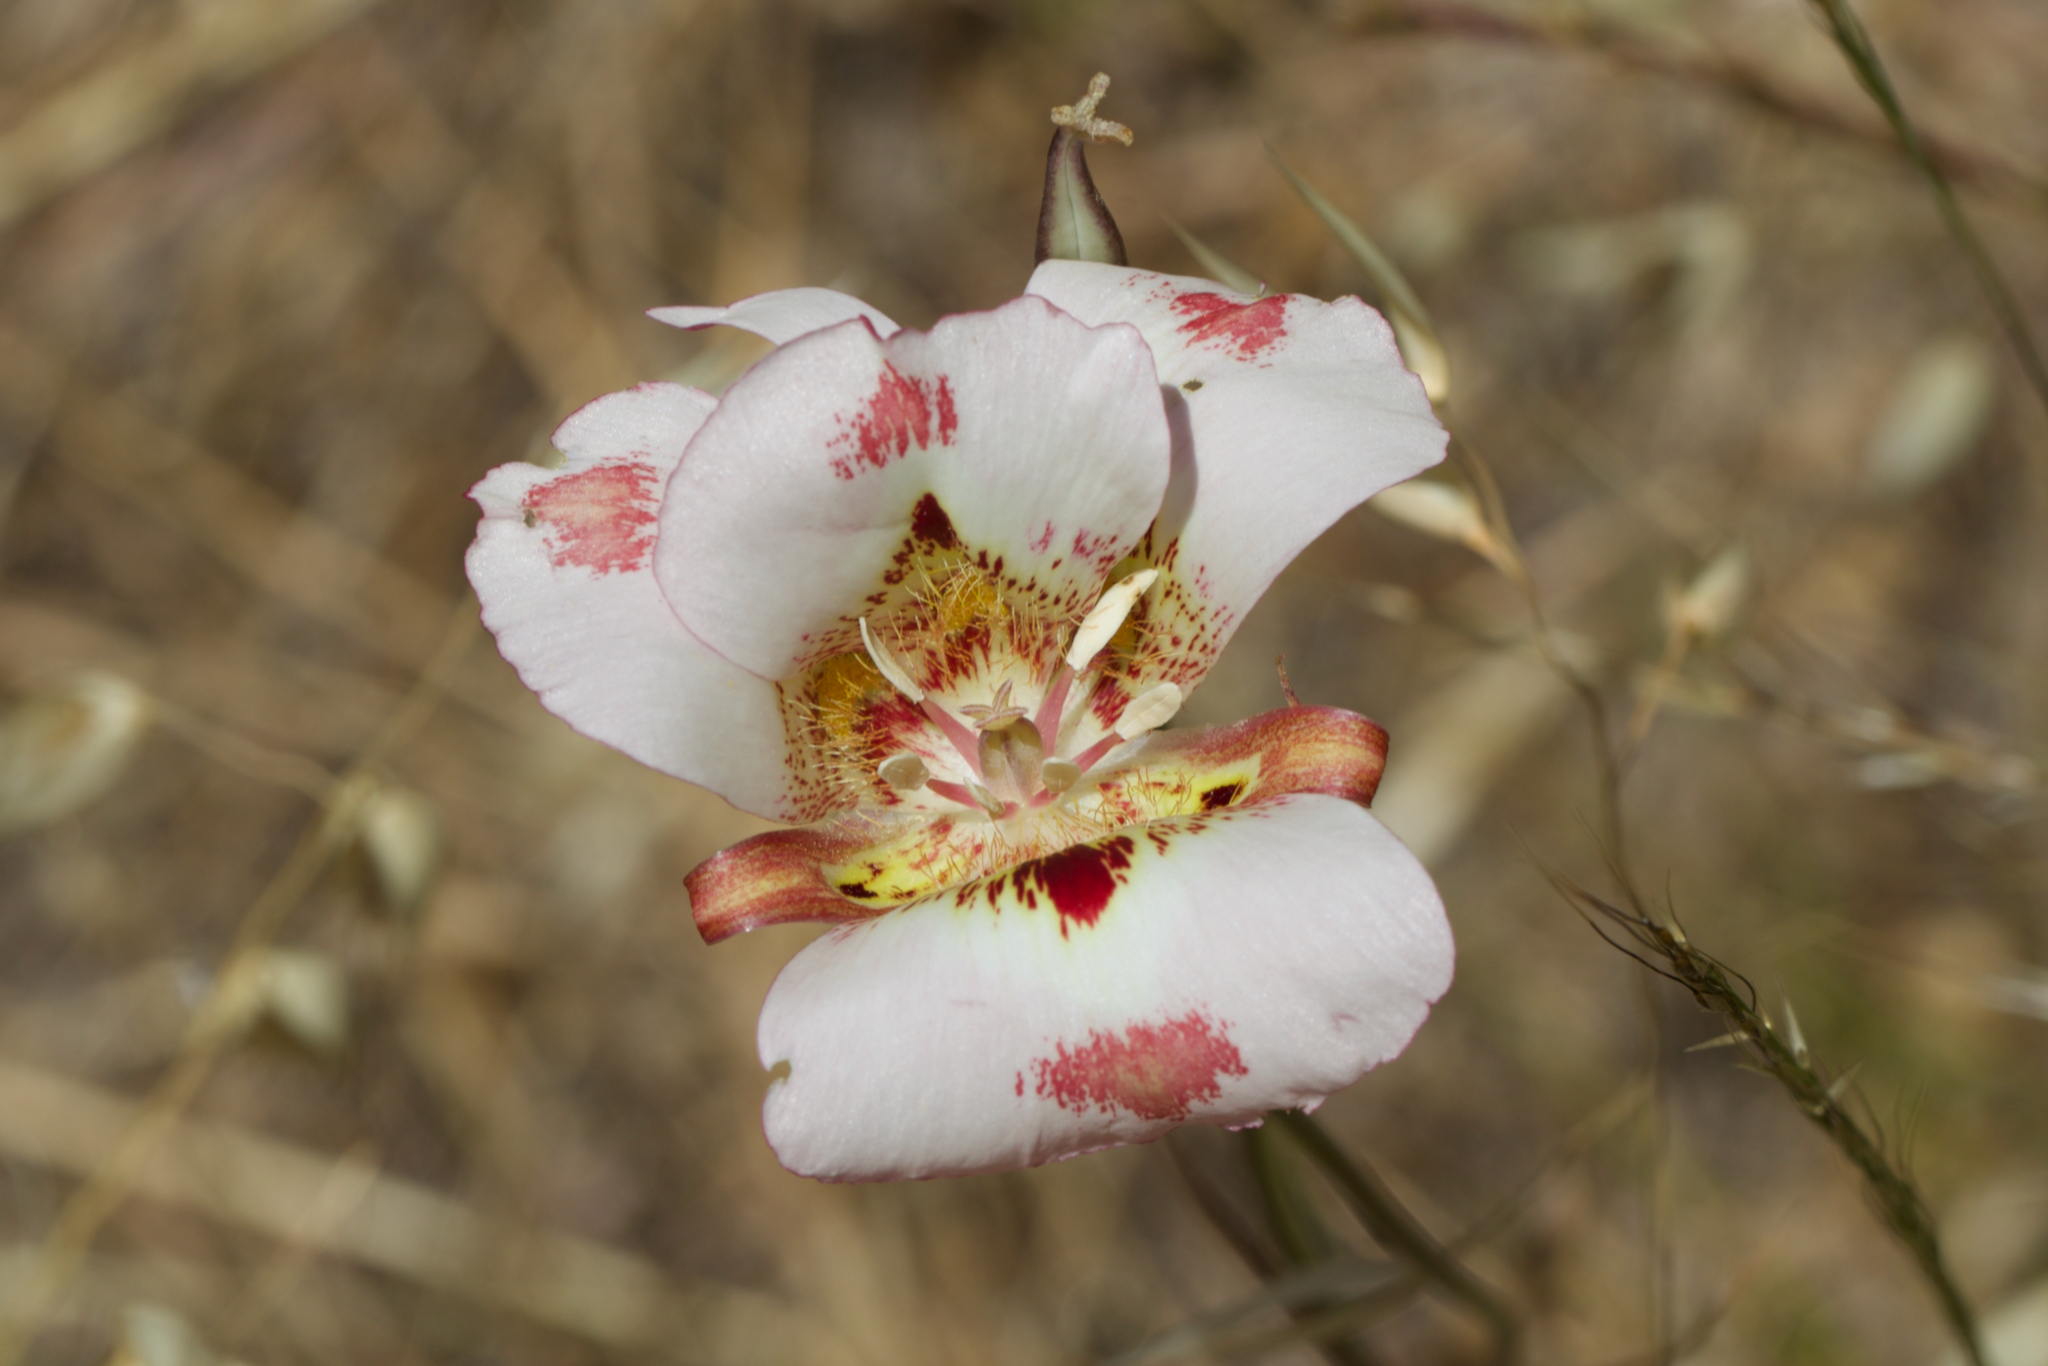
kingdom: Plantae
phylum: Tracheophyta
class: Liliopsida
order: Liliales
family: Liliaceae
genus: Calochortus
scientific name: Calochortus venustus
